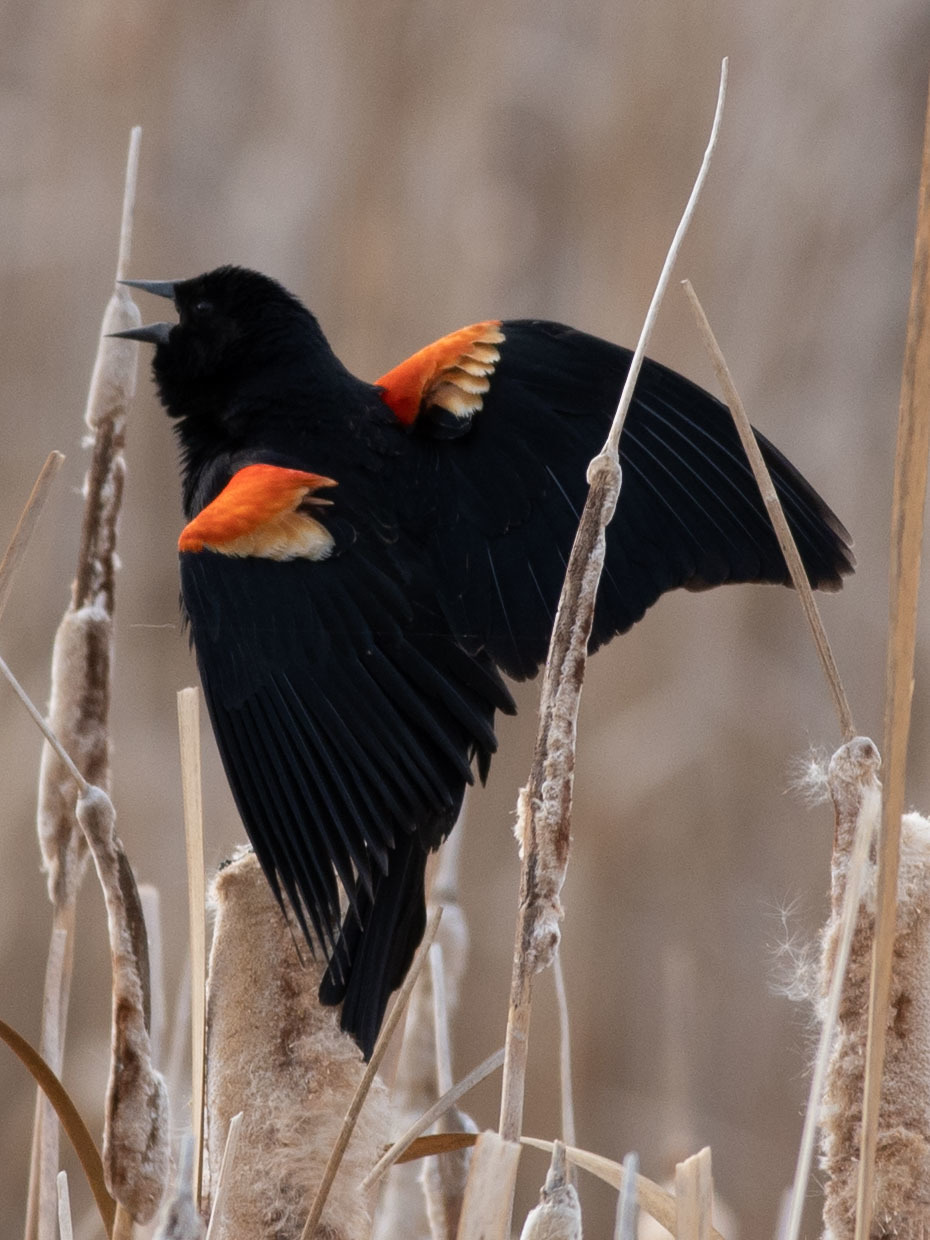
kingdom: Animalia
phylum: Chordata
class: Aves
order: Passeriformes
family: Icteridae
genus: Agelaius
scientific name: Agelaius phoeniceus
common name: Red-winged blackbird
